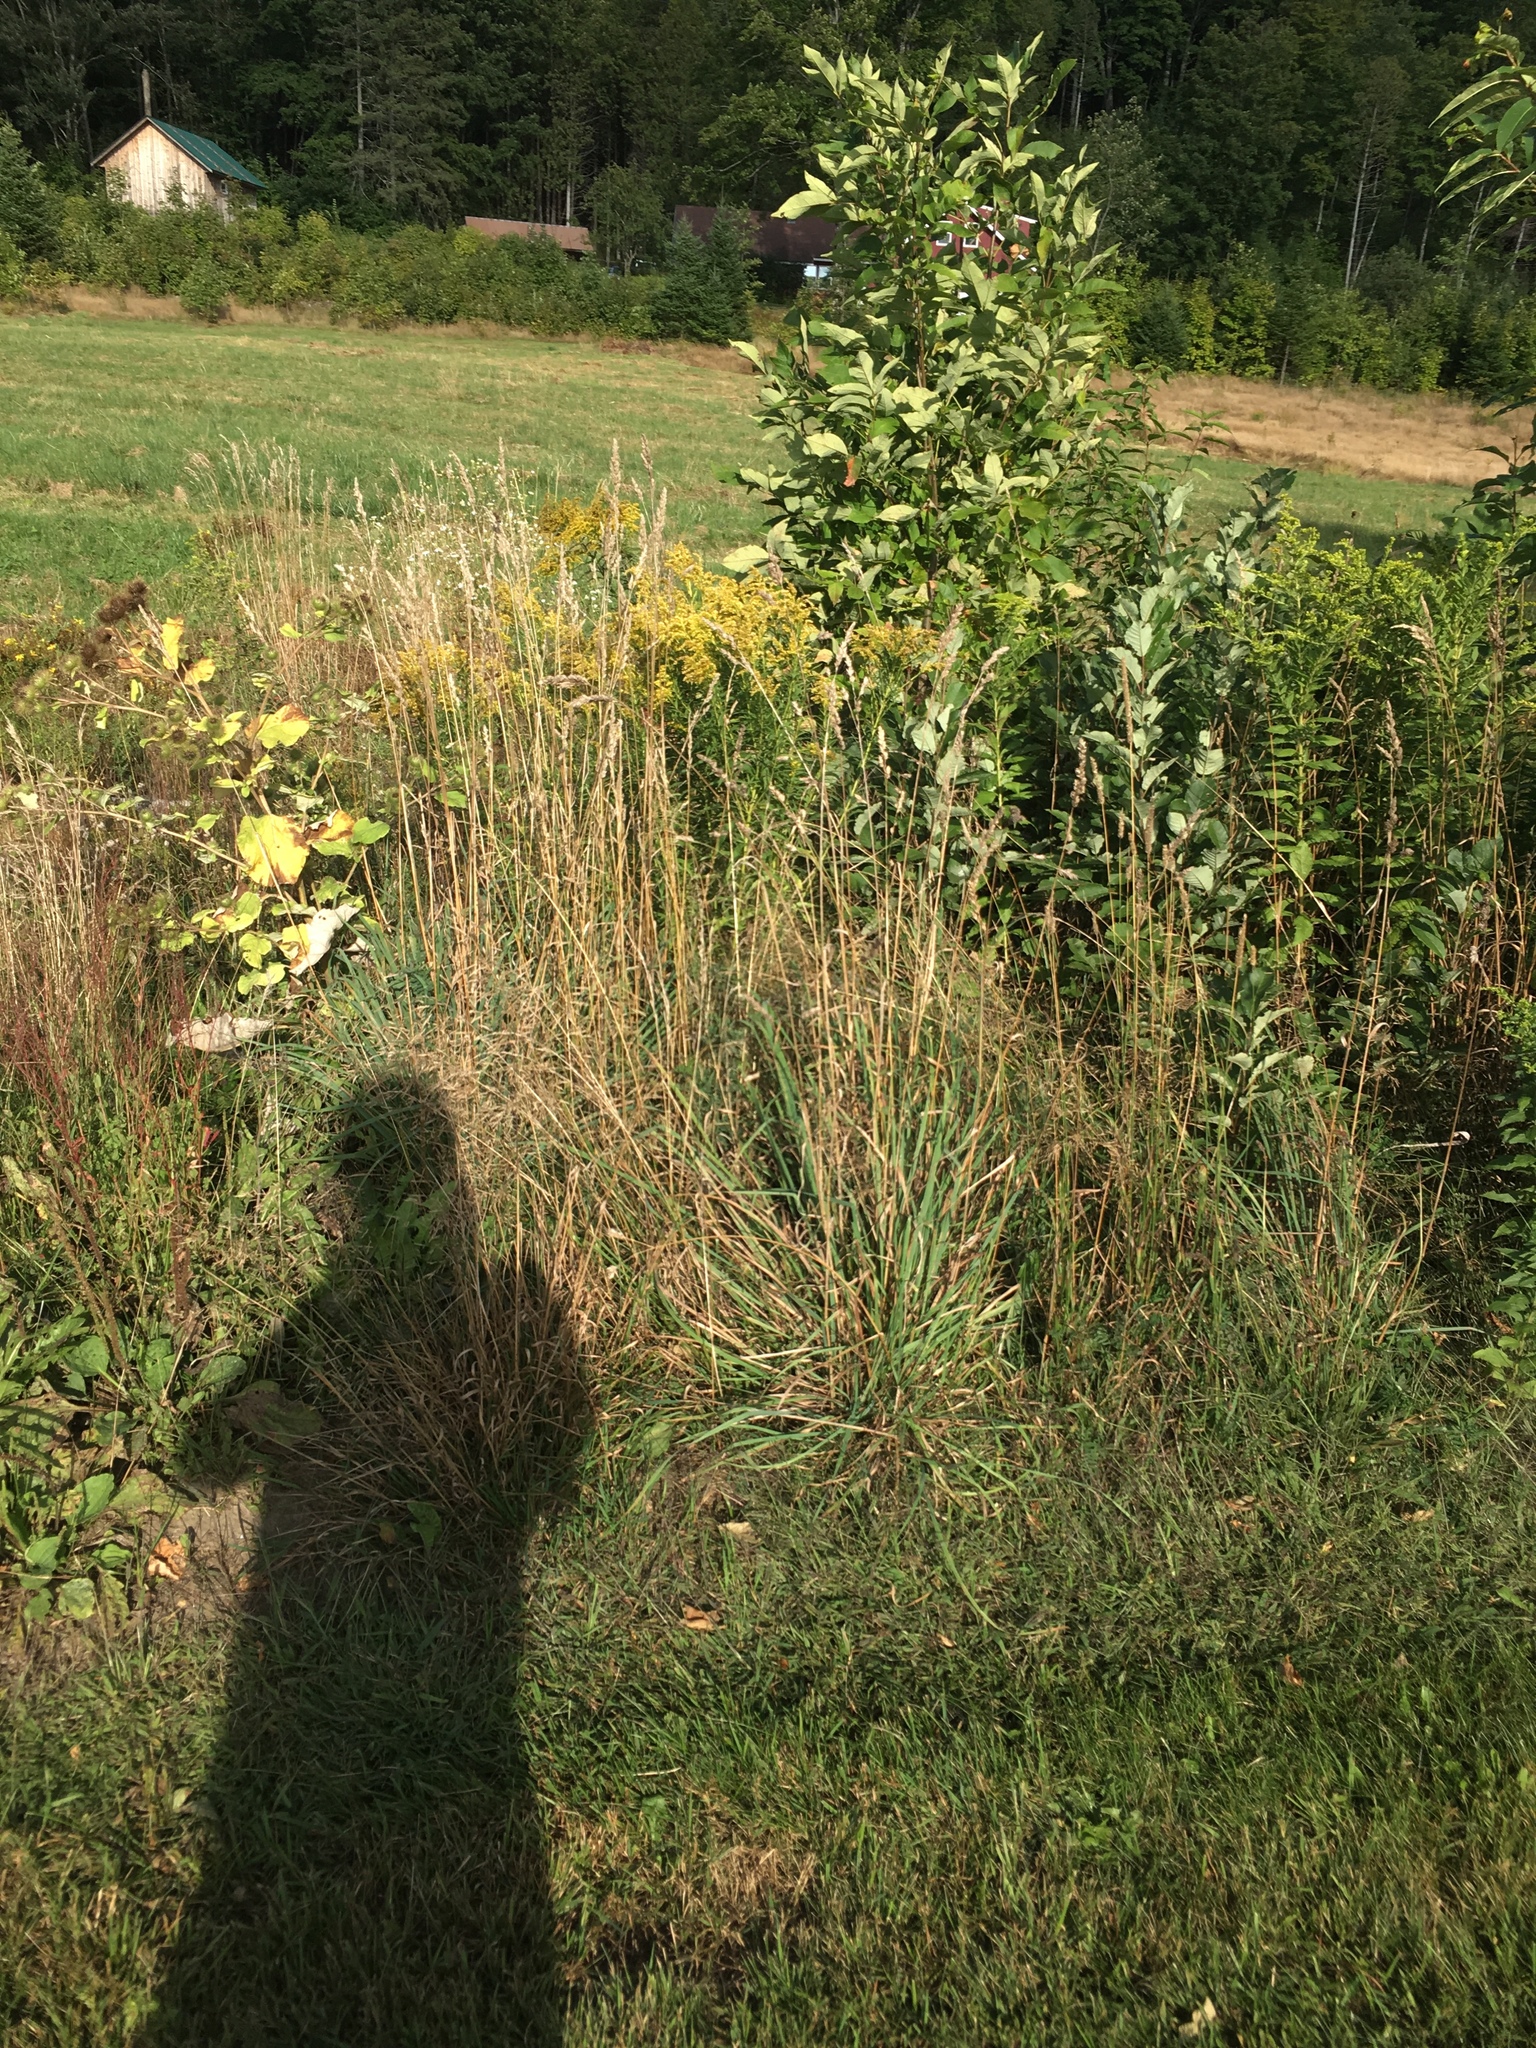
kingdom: Plantae
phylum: Tracheophyta
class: Liliopsida
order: Poales
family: Poaceae
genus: Dactylis
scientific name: Dactylis glomerata
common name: Orchardgrass
